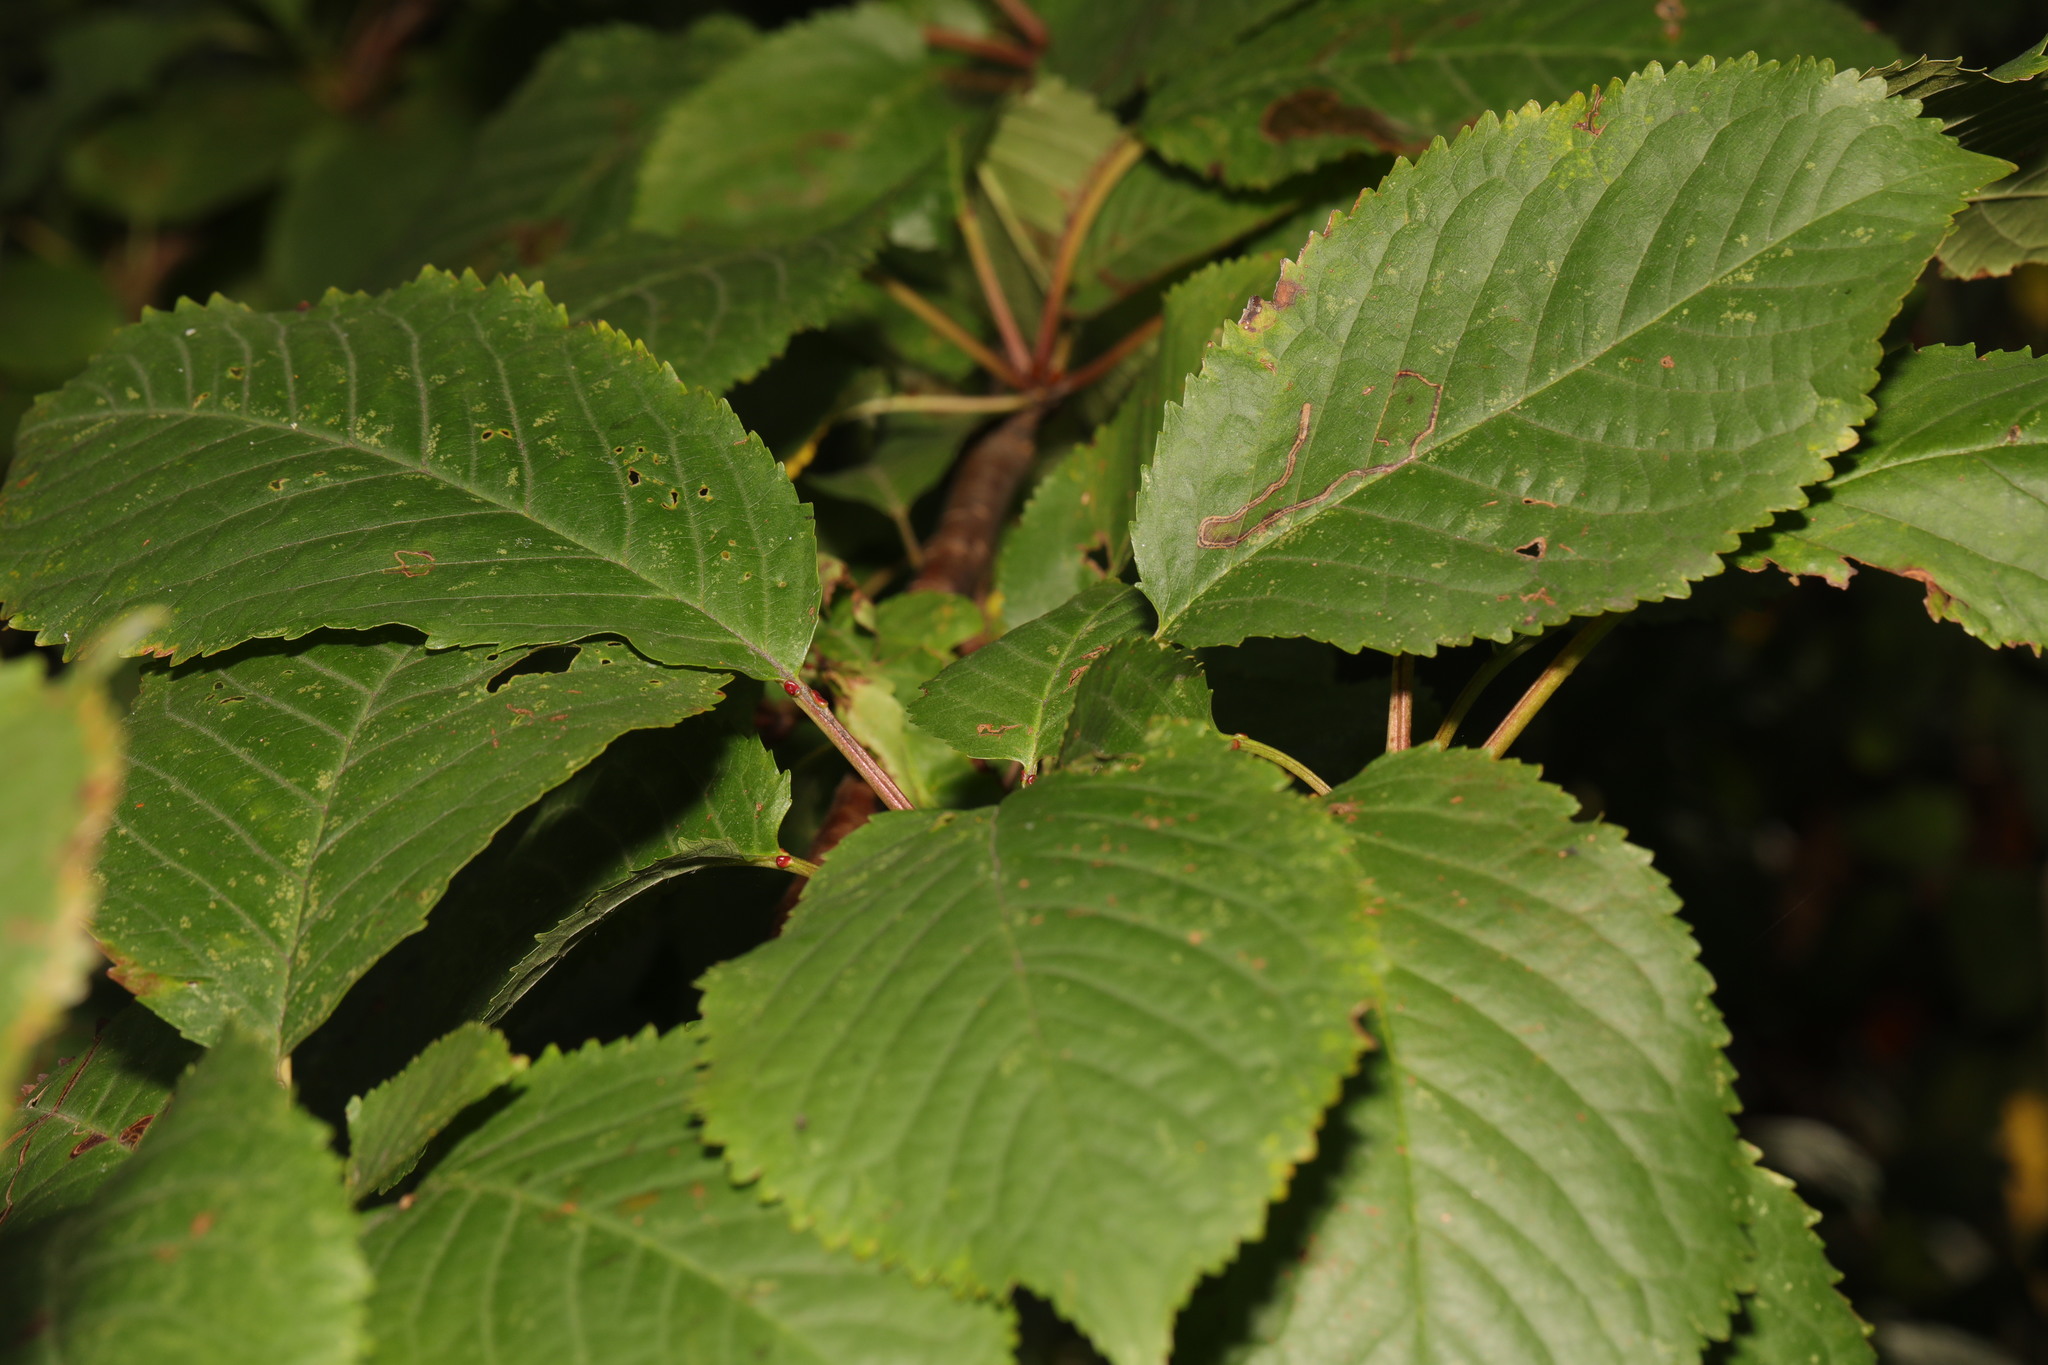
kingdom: Plantae
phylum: Tracheophyta
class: Magnoliopsida
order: Rosales
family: Rosaceae
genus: Prunus
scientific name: Prunus avium
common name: Sweet cherry
